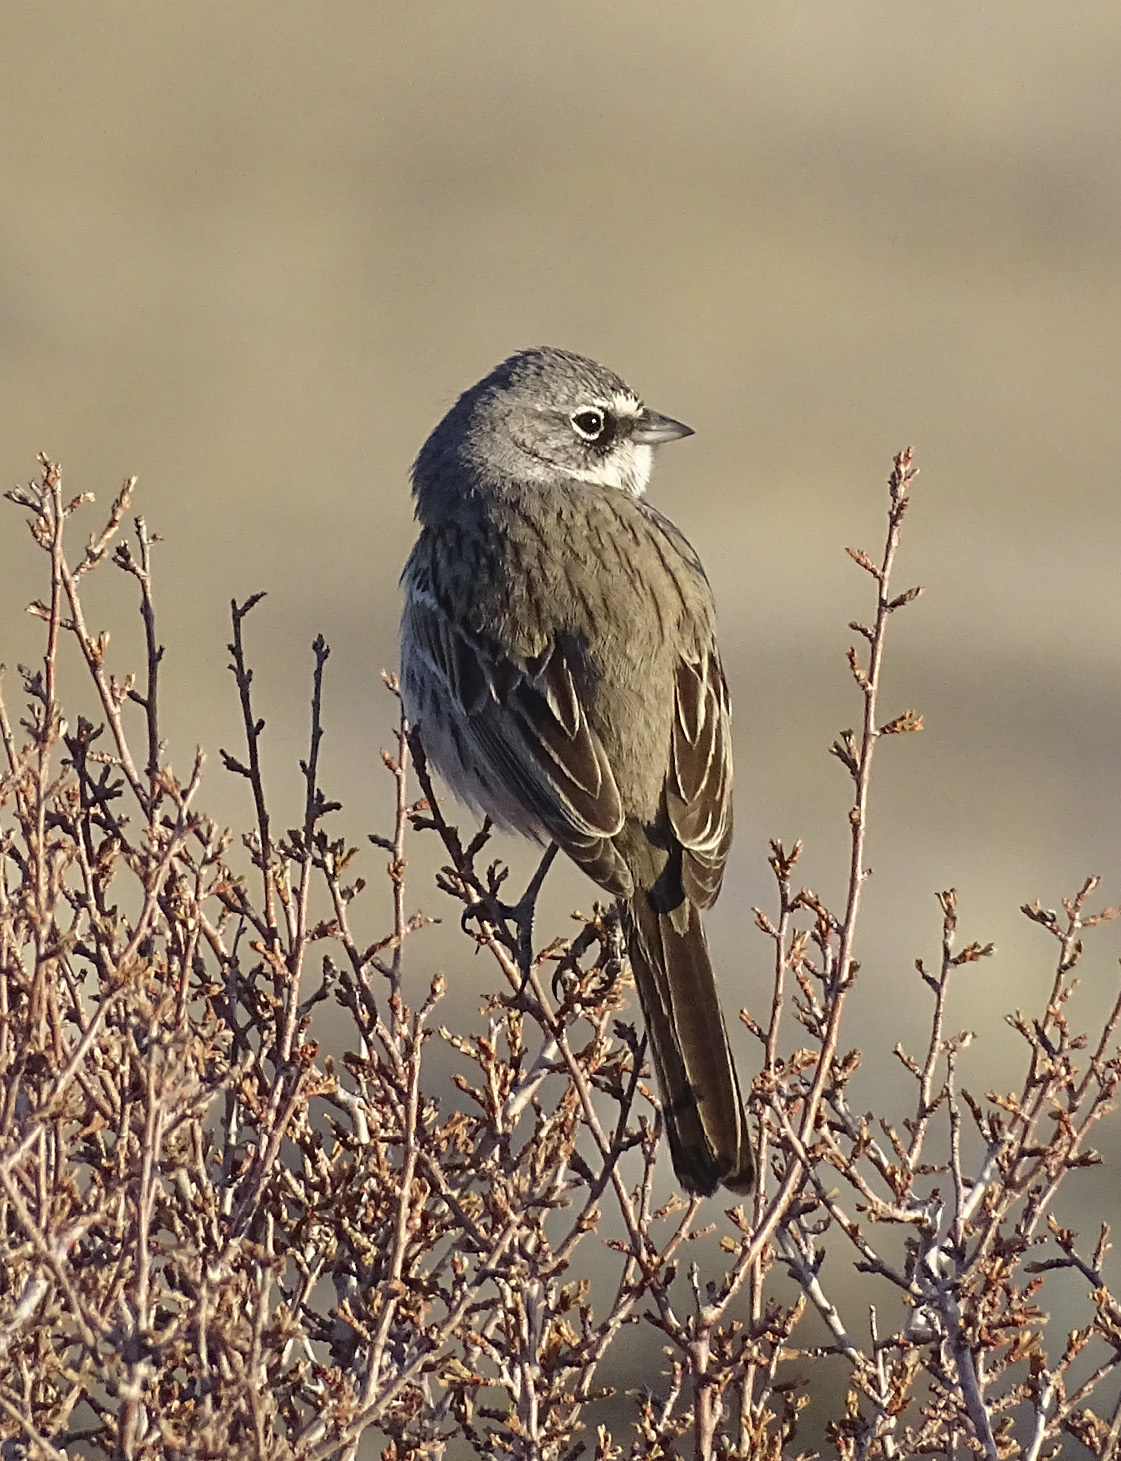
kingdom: Animalia
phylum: Chordata
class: Aves
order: Passeriformes
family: Passerellidae
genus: Artemisiospiza
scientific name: Artemisiospiza nevadensis
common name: Sagebrush sparrow
